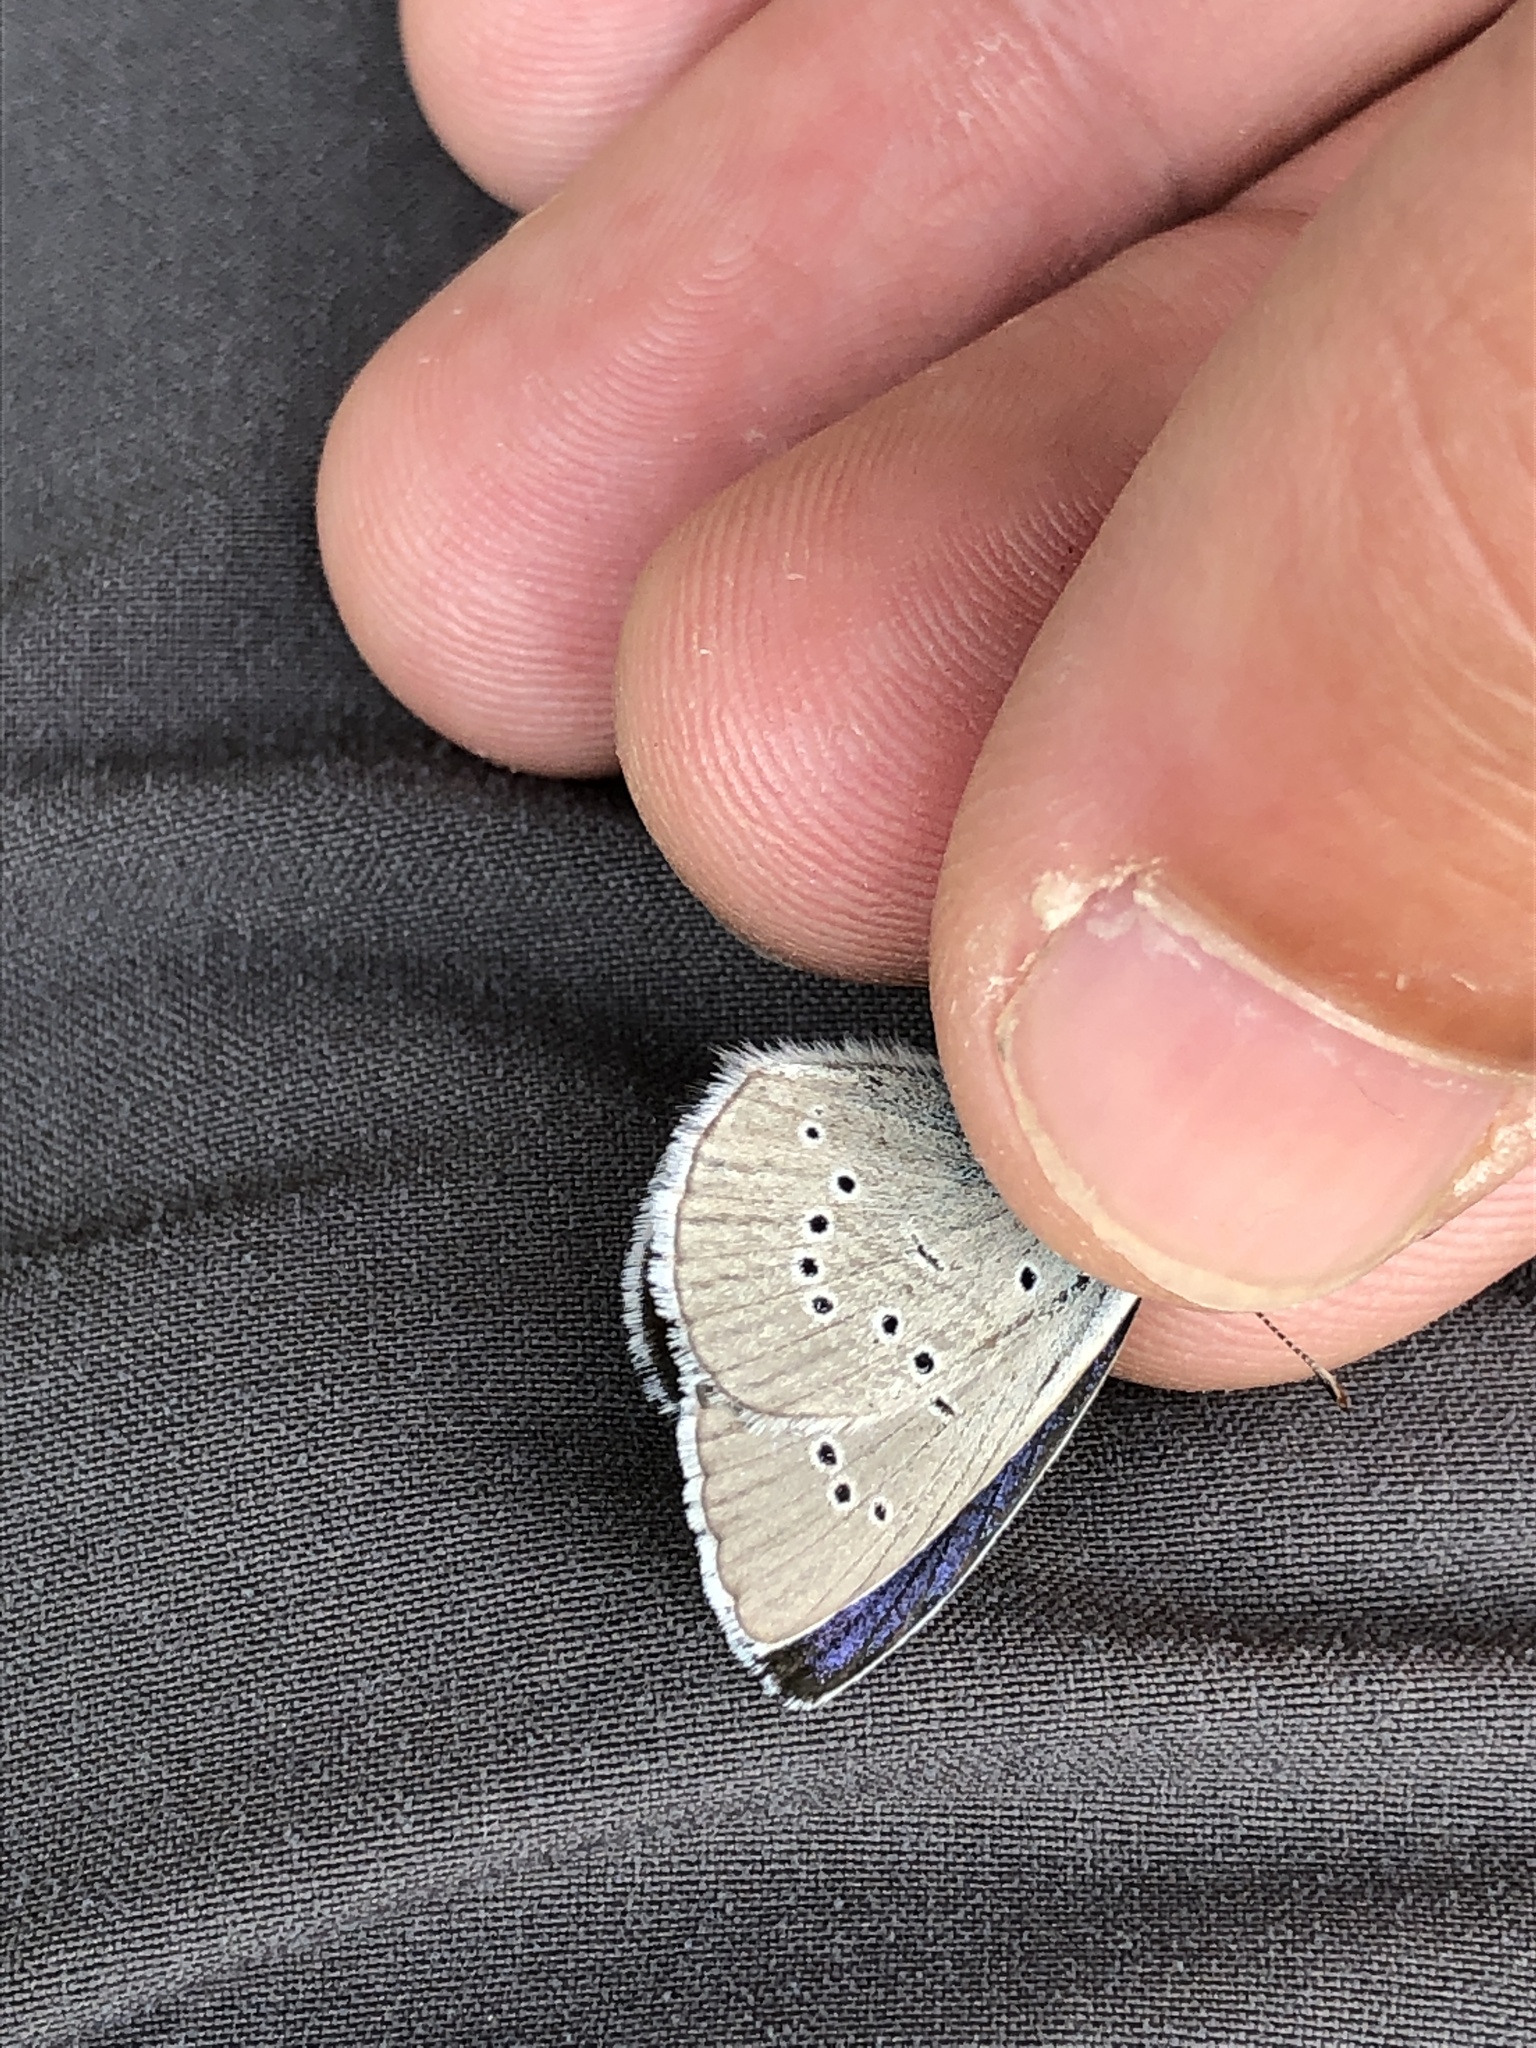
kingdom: Animalia
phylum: Arthropoda
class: Insecta
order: Lepidoptera
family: Lycaenidae
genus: Cyaniris
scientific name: Cyaniris semiargus
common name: Mazarine blue
